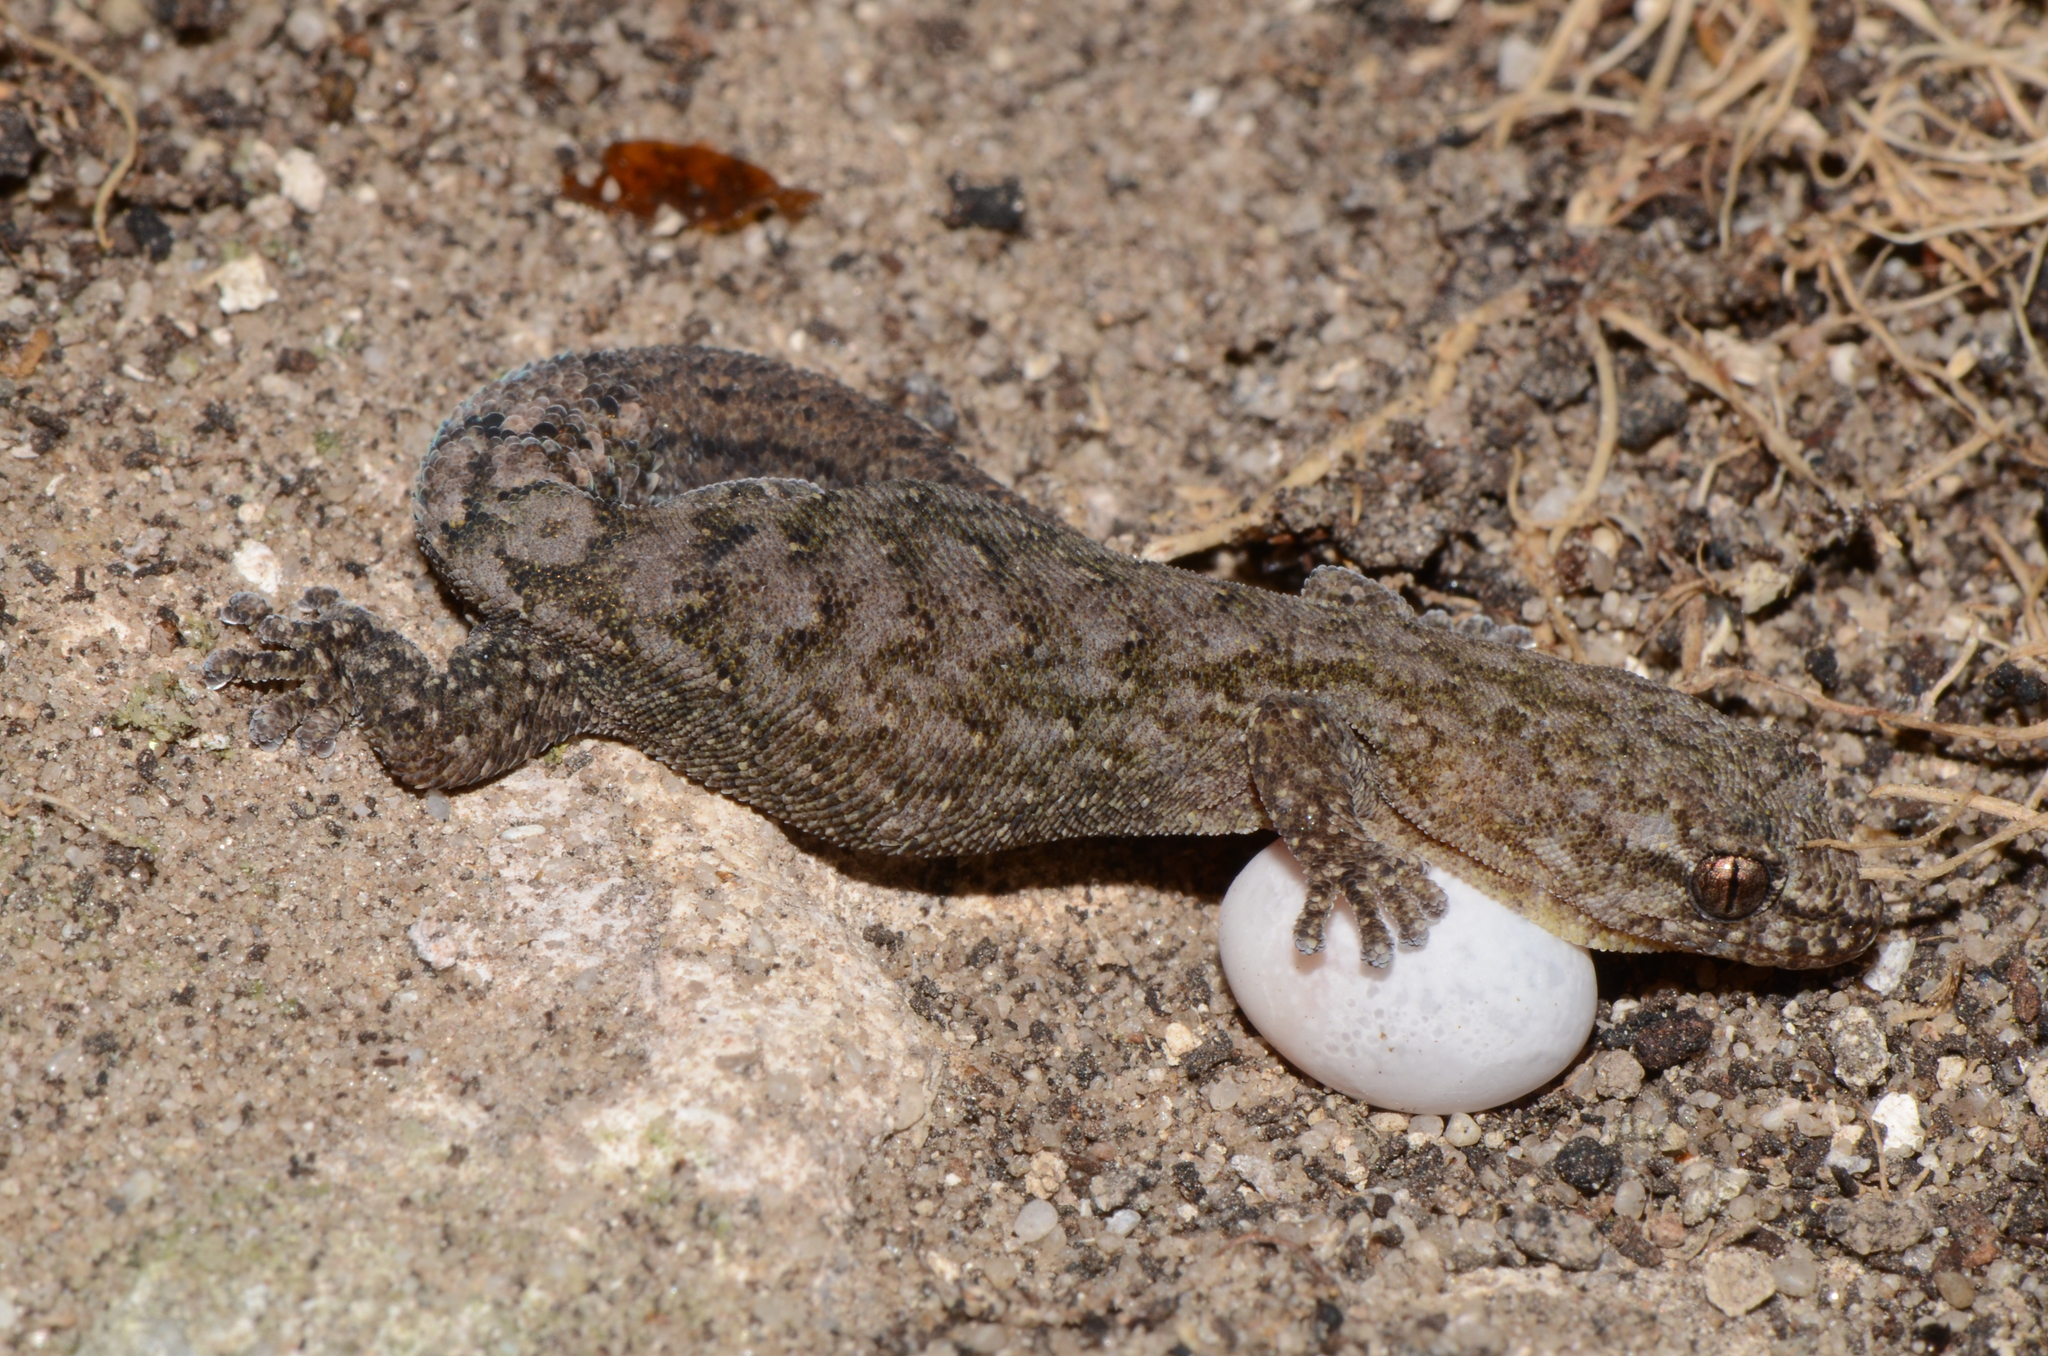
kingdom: Animalia
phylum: Chordata
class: Squamata
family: Gekkonidae
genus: Goggia
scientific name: Goggia incognita
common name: Cryptic pygmy gecko
